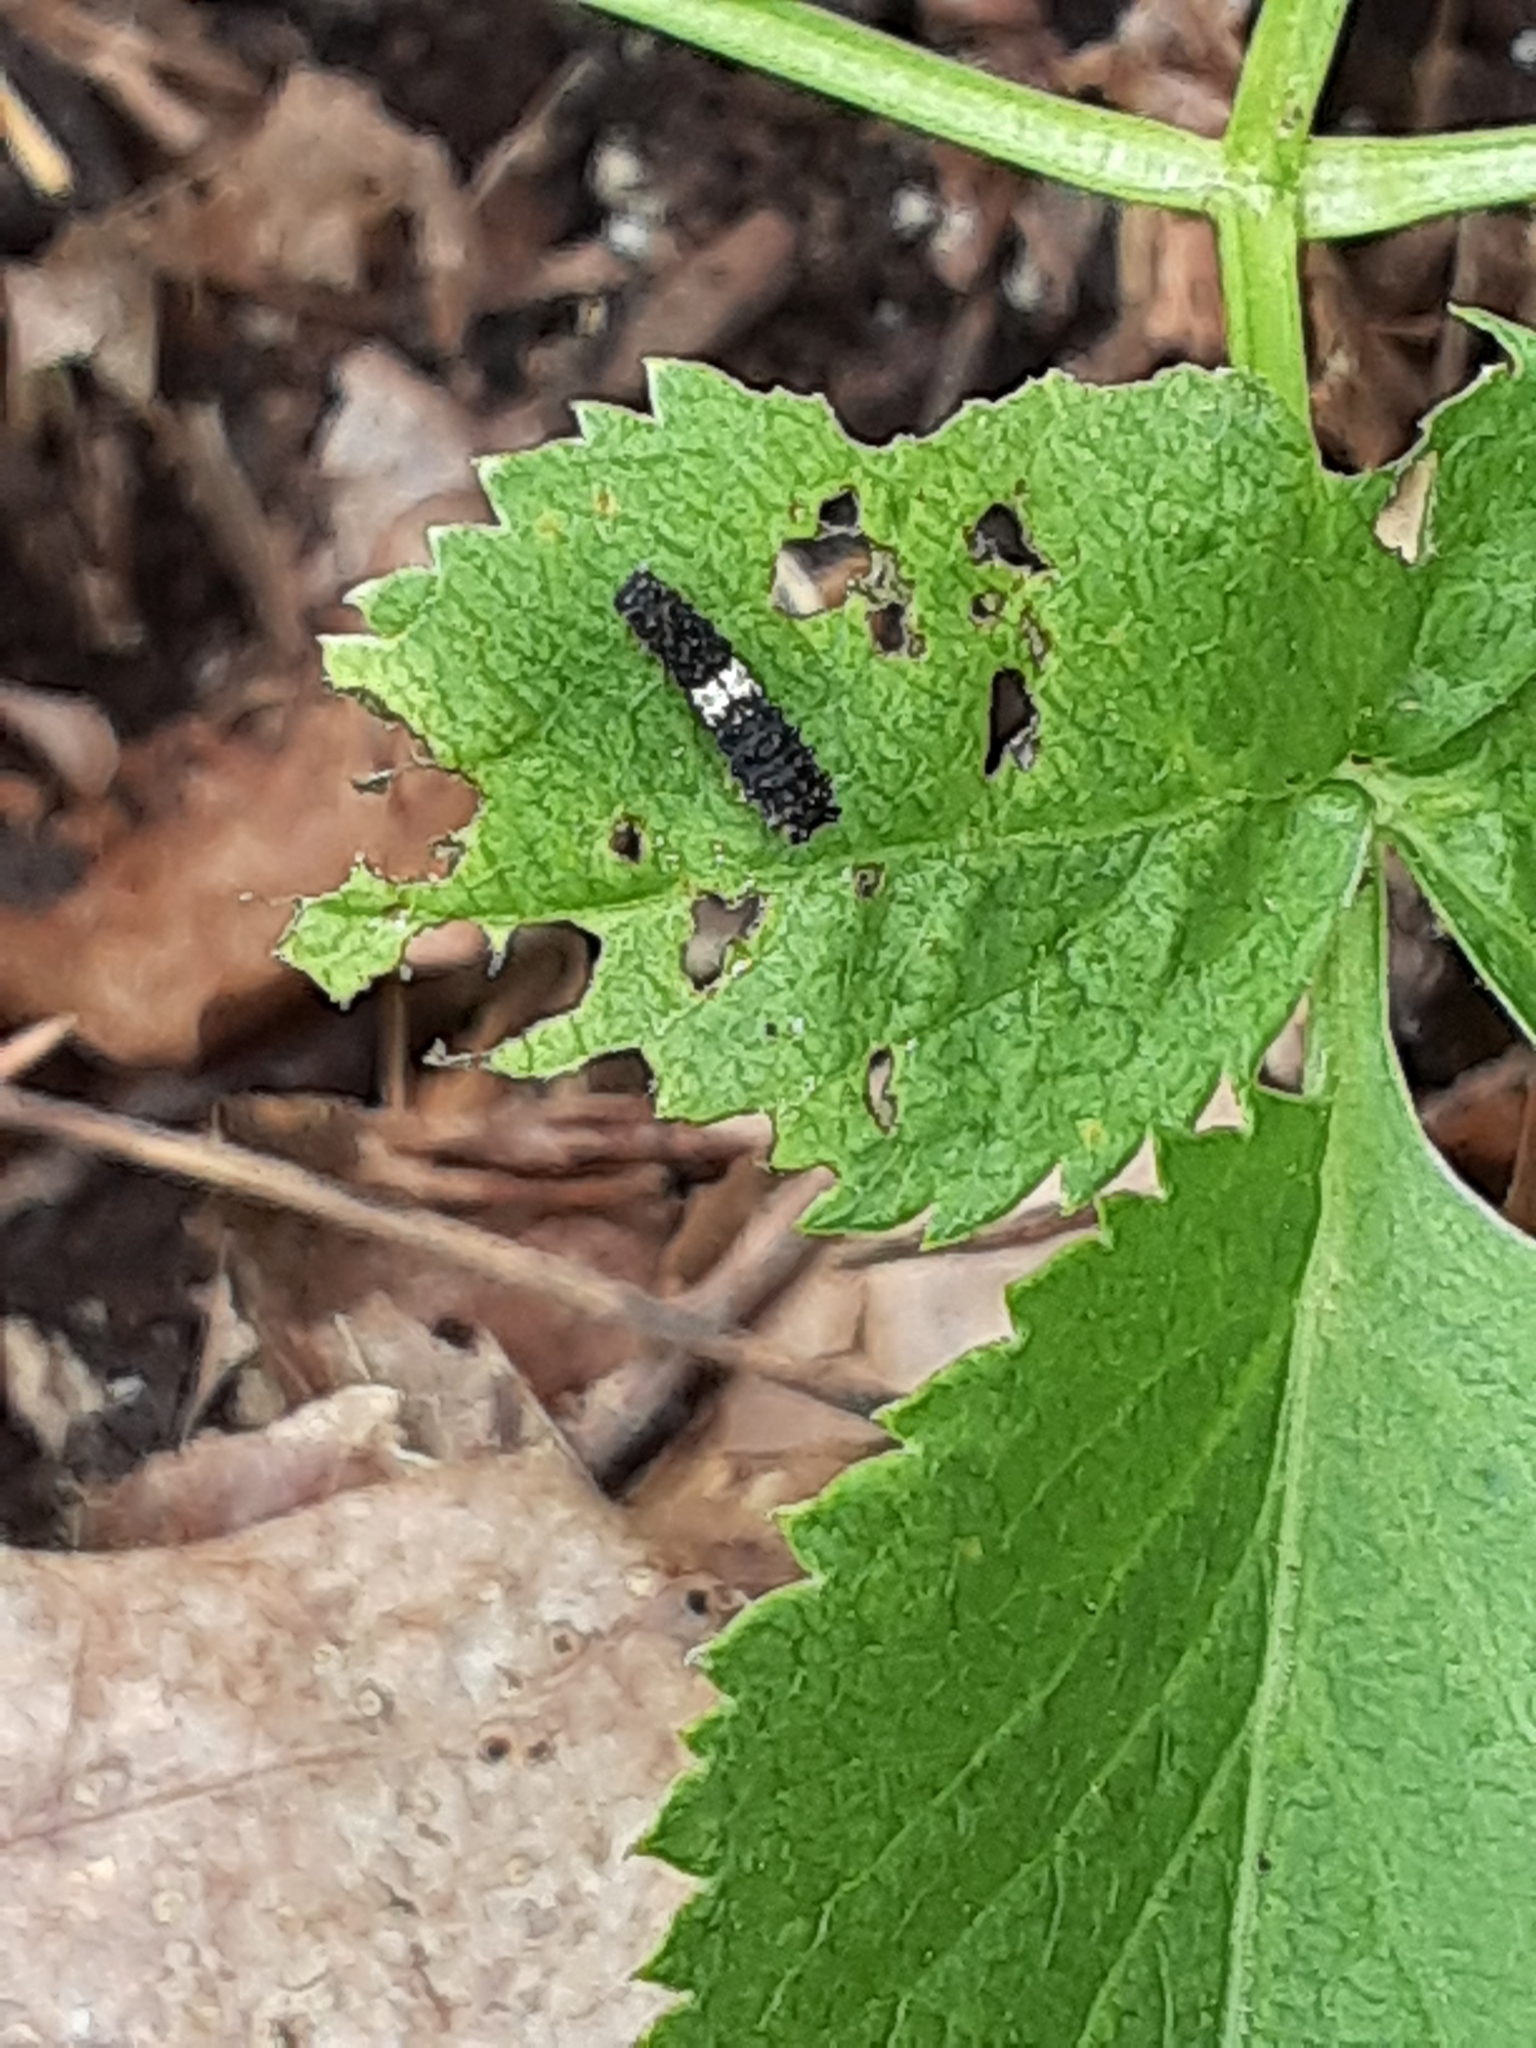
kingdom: Animalia
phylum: Arthropoda
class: Insecta
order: Lepidoptera
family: Papilionidae
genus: Papilio
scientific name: Papilio polyxenes
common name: Black swallowtail
